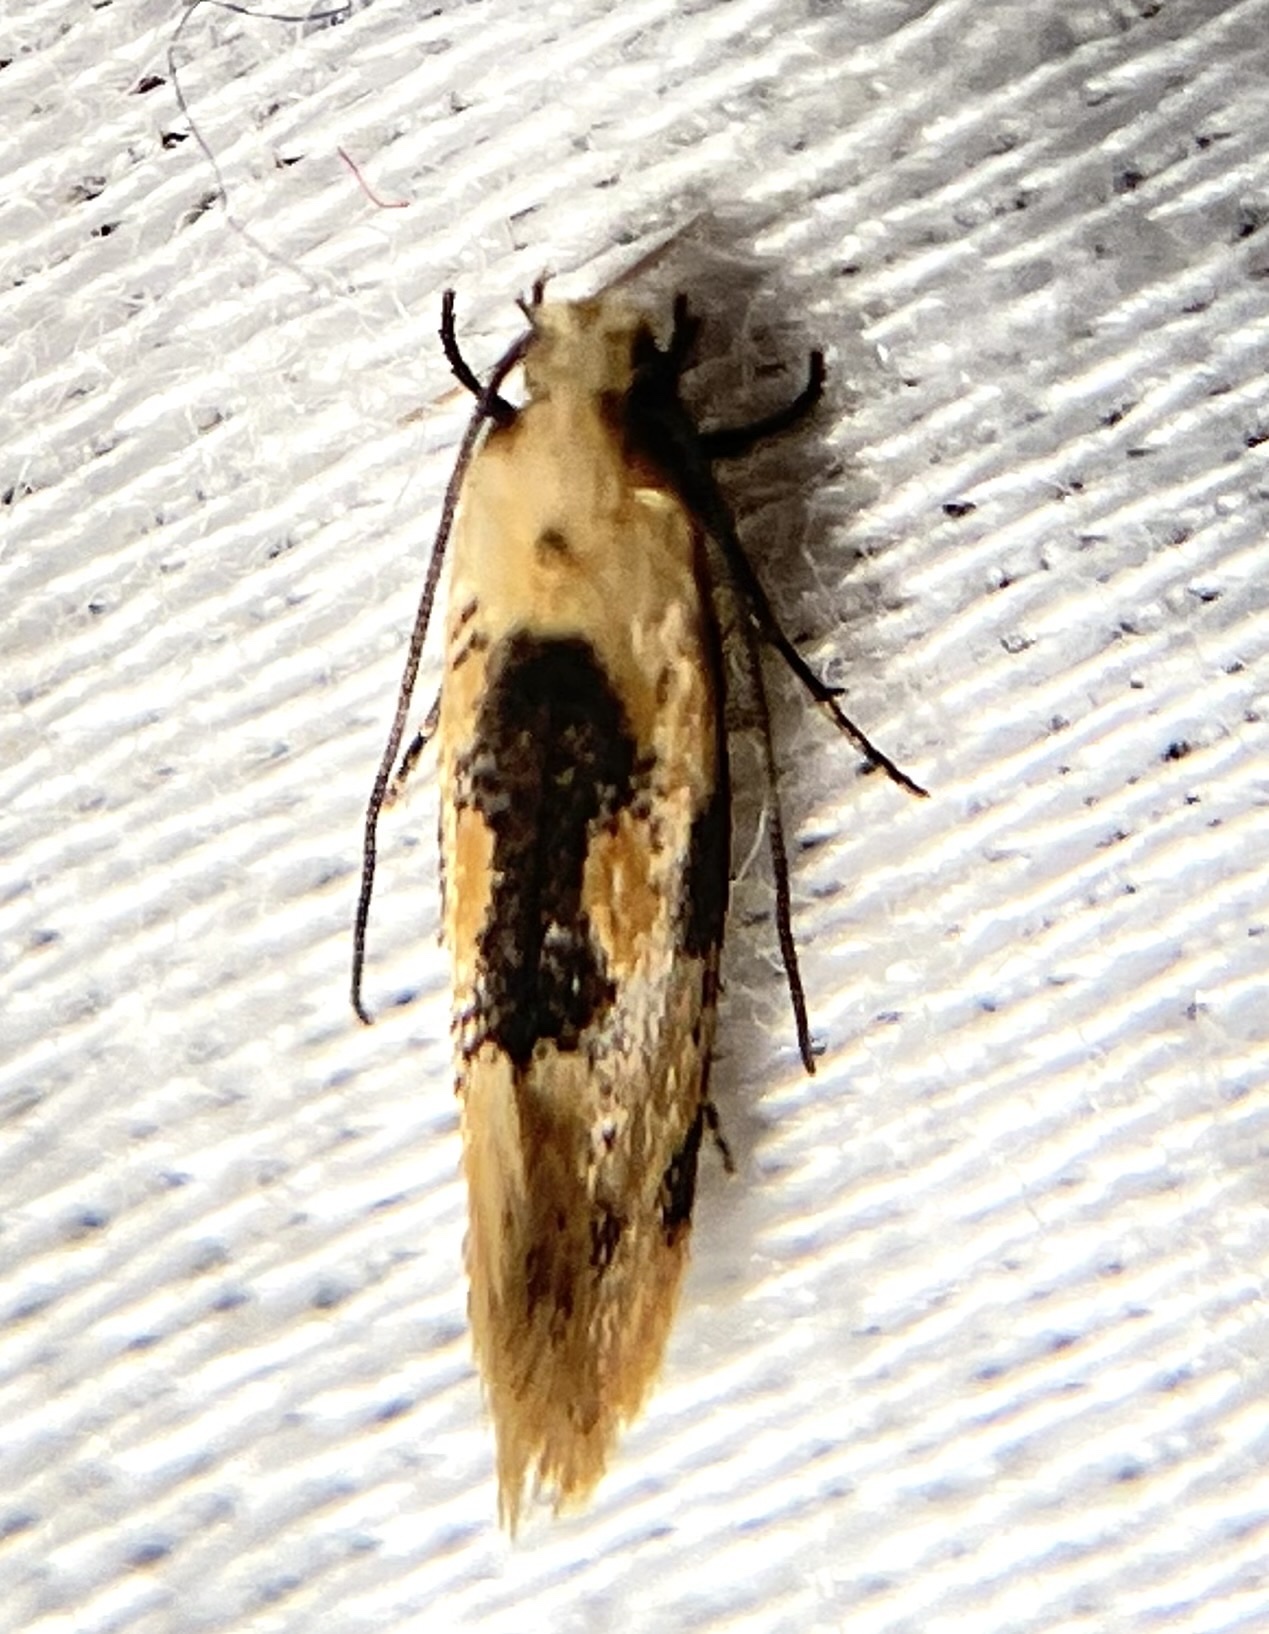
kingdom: Animalia
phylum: Arthropoda
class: Insecta
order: Lepidoptera
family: Meessiidae
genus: Hybroma
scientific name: Hybroma servulella
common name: Yellow wave moth
